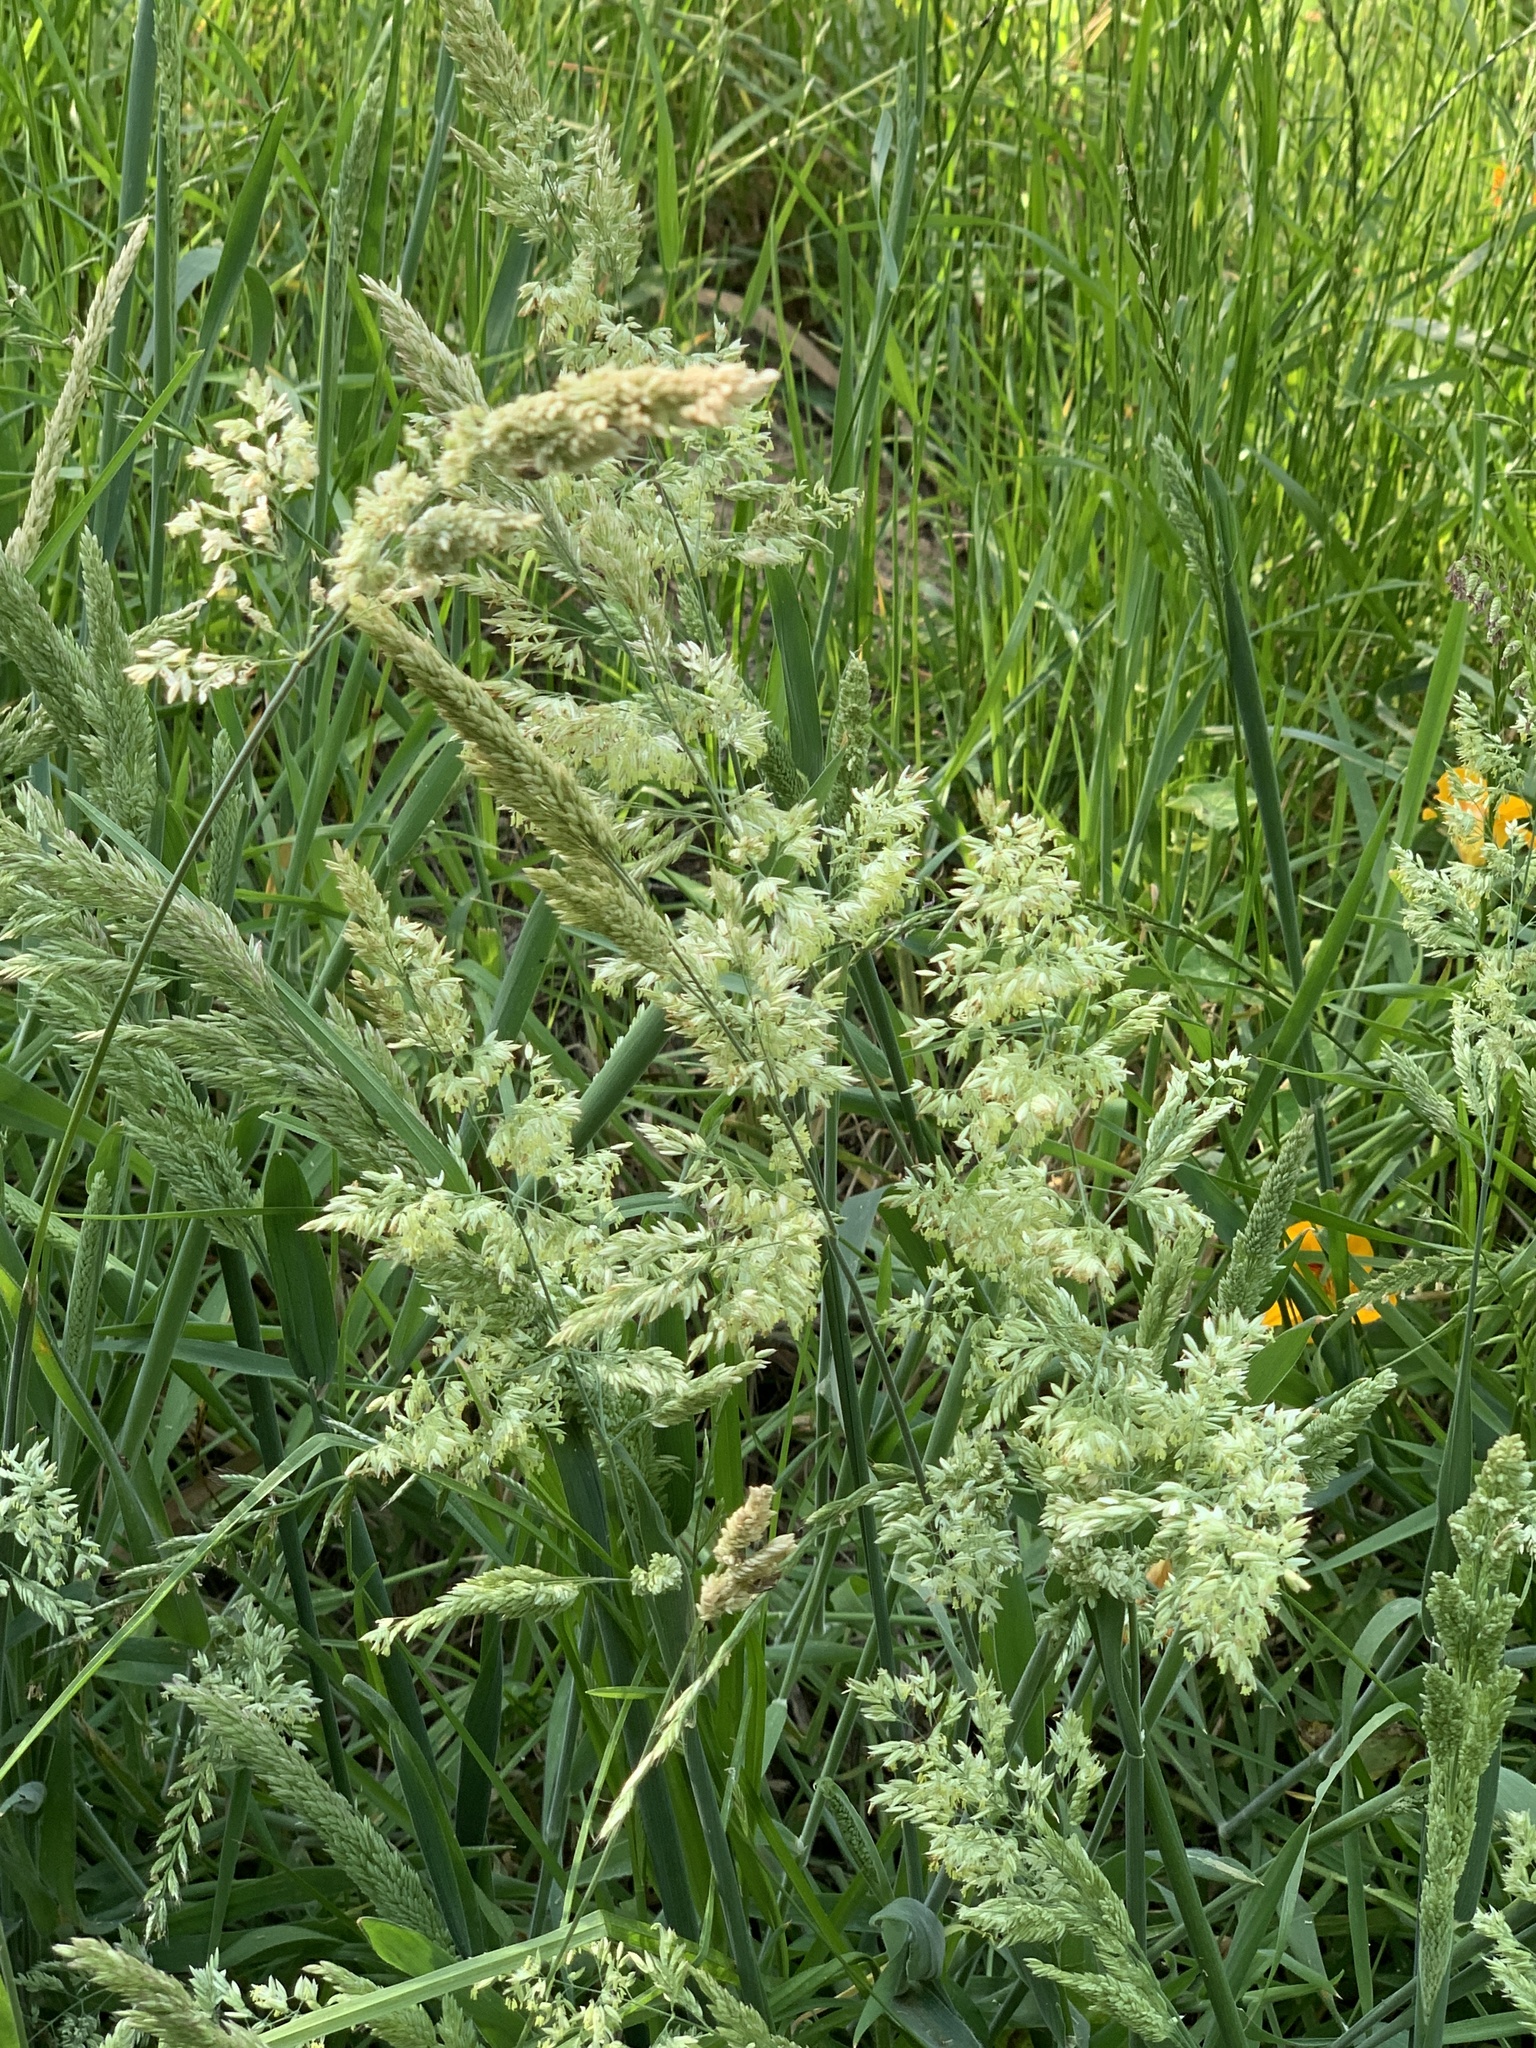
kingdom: Plantae
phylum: Tracheophyta
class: Liliopsida
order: Poales
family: Poaceae
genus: Holcus
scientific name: Holcus lanatus
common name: Yorkshire-fog
